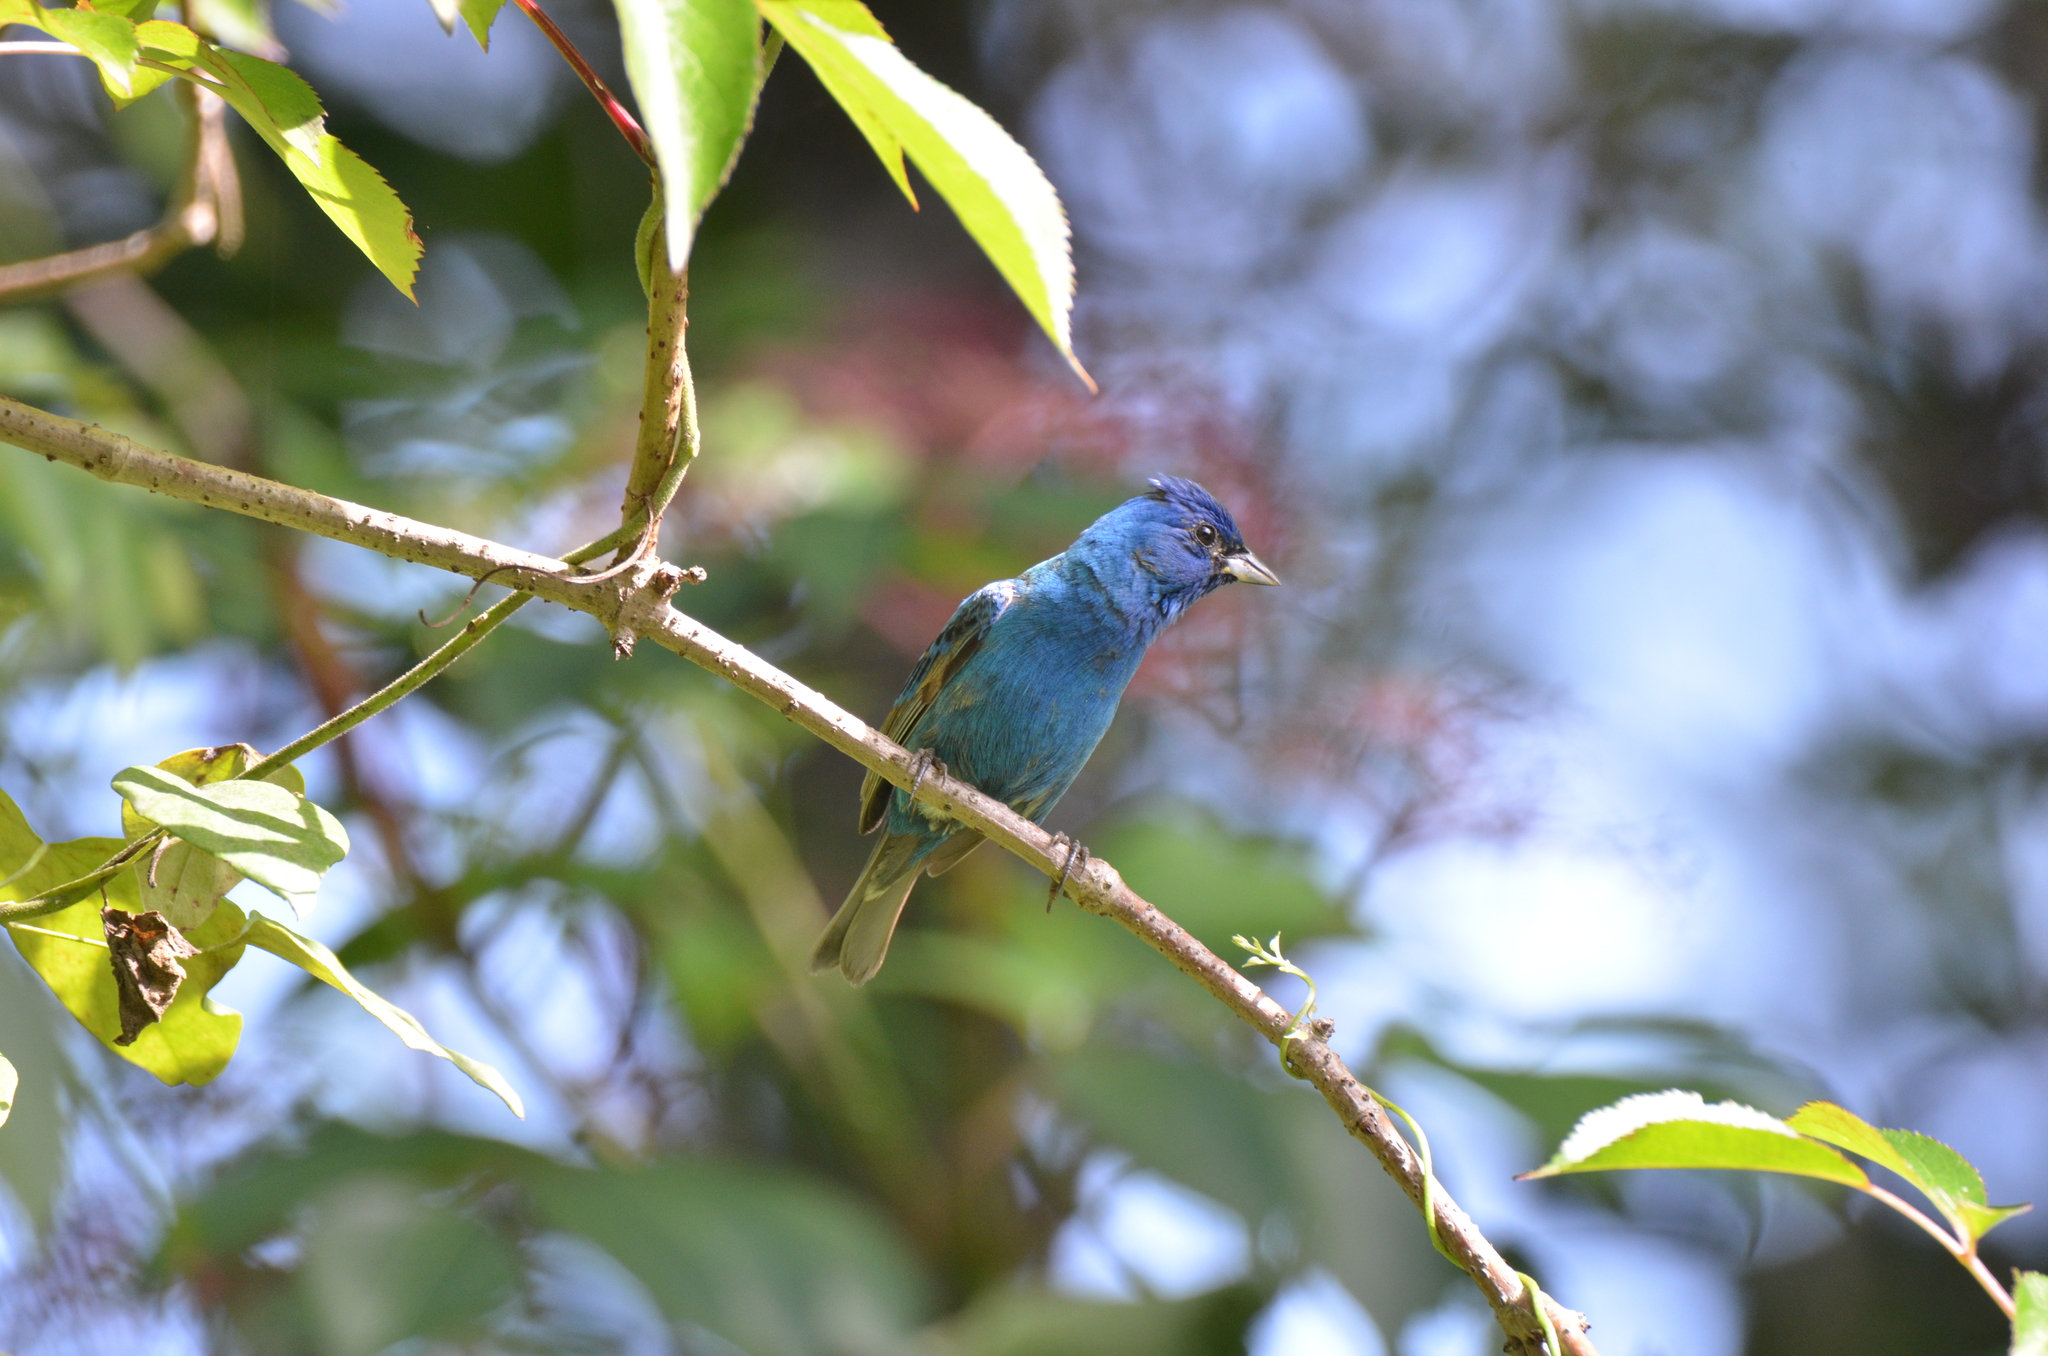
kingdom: Animalia
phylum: Chordata
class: Aves
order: Passeriformes
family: Cardinalidae
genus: Passerina
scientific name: Passerina cyanea
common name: Indigo bunting
